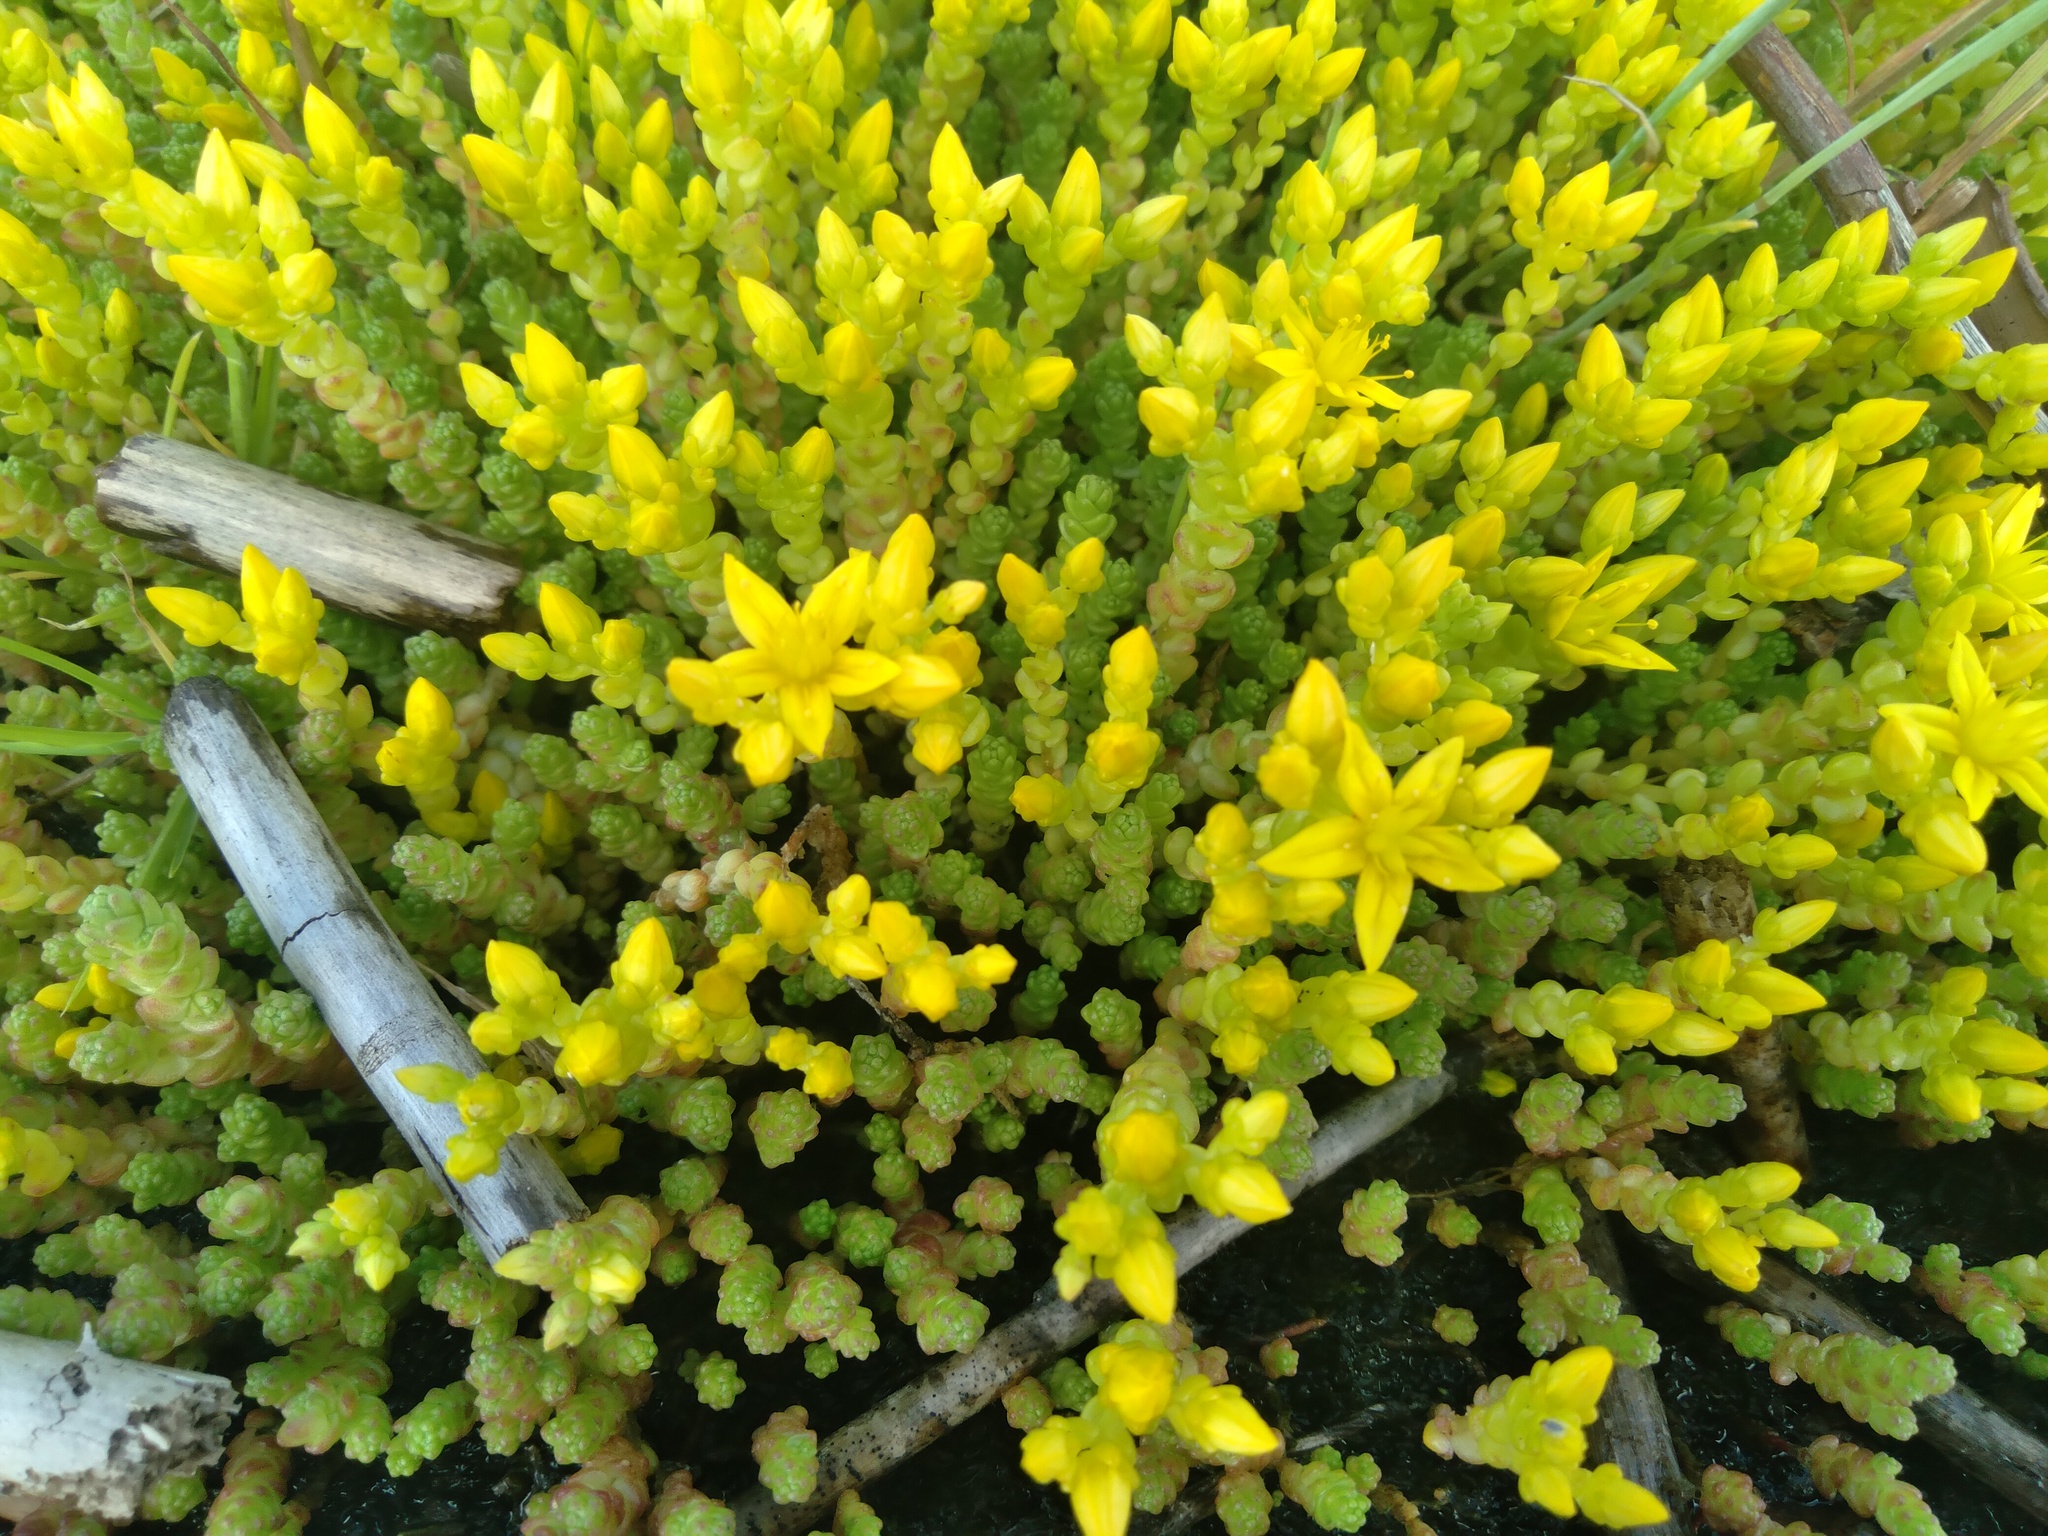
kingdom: Plantae
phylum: Tracheophyta
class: Magnoliopsida
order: Saxifragales
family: Crassulaceae
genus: Sedum
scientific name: Sedum acre
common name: Biting stonecrop
